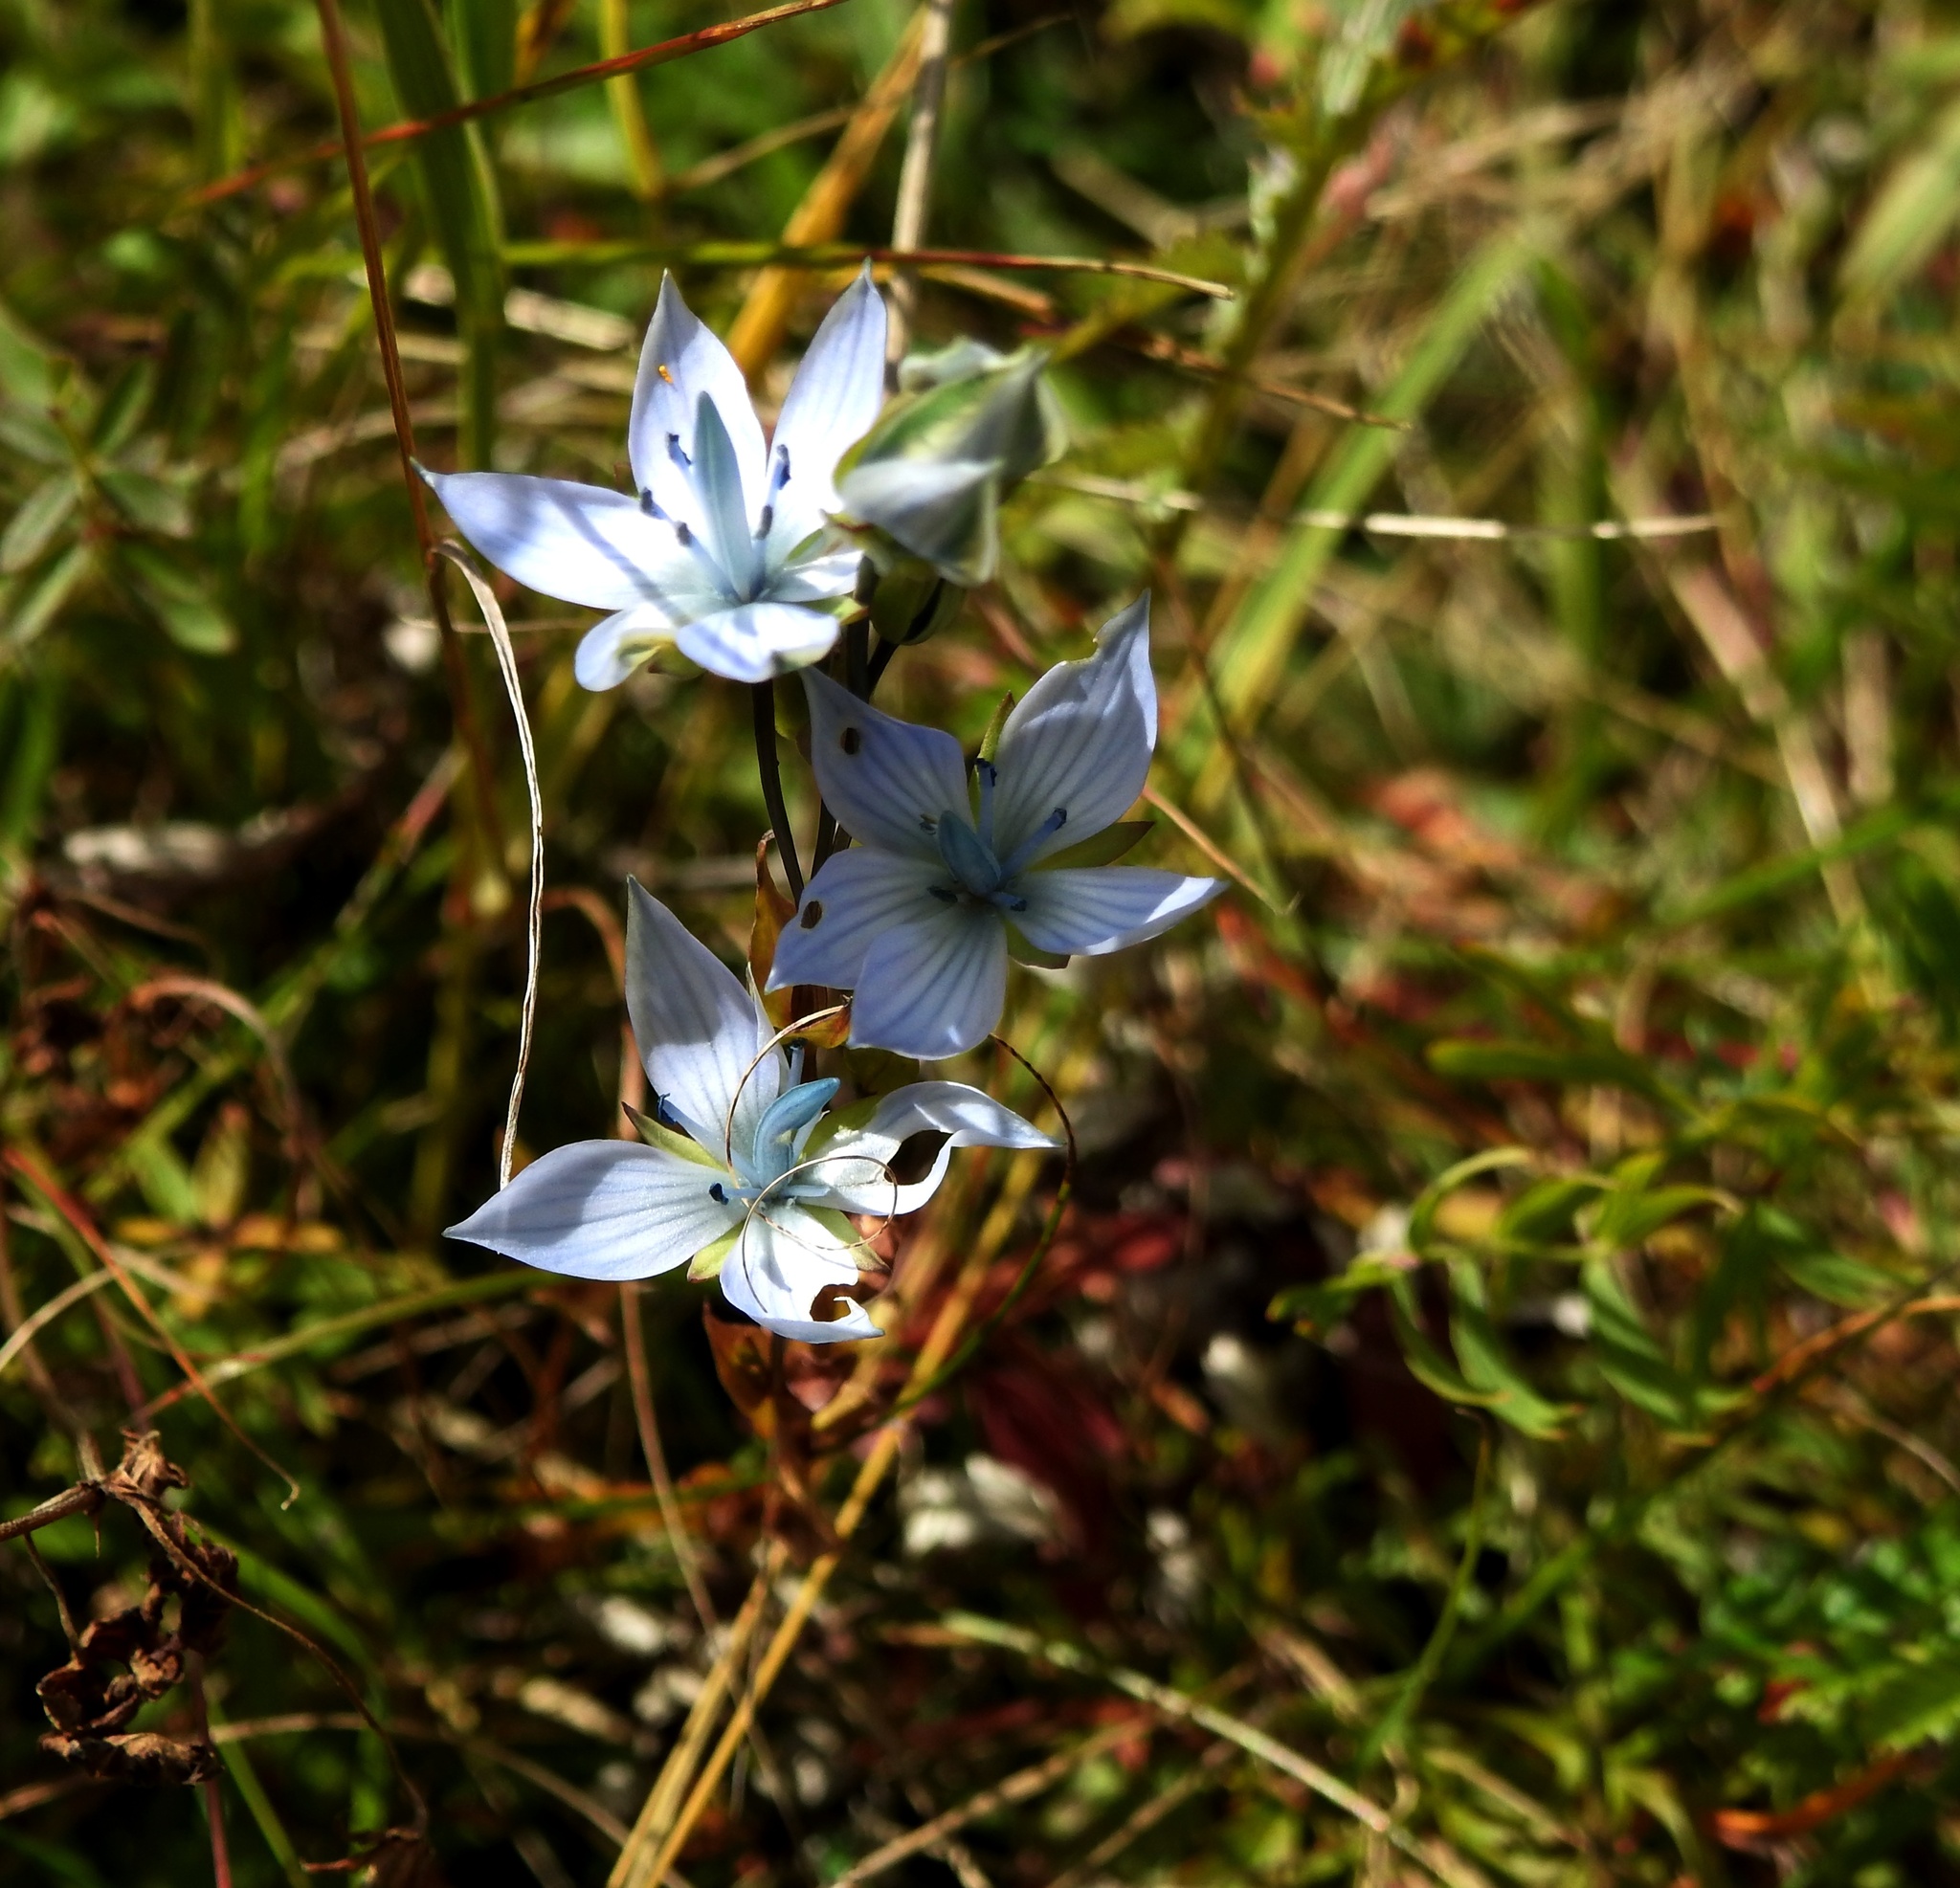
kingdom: Plantae
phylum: Tracheophyta
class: Magnoliopsida
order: Gentianales
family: Gentianaceae
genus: Lomatogonium
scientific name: Lomatogonium carinthiacum
